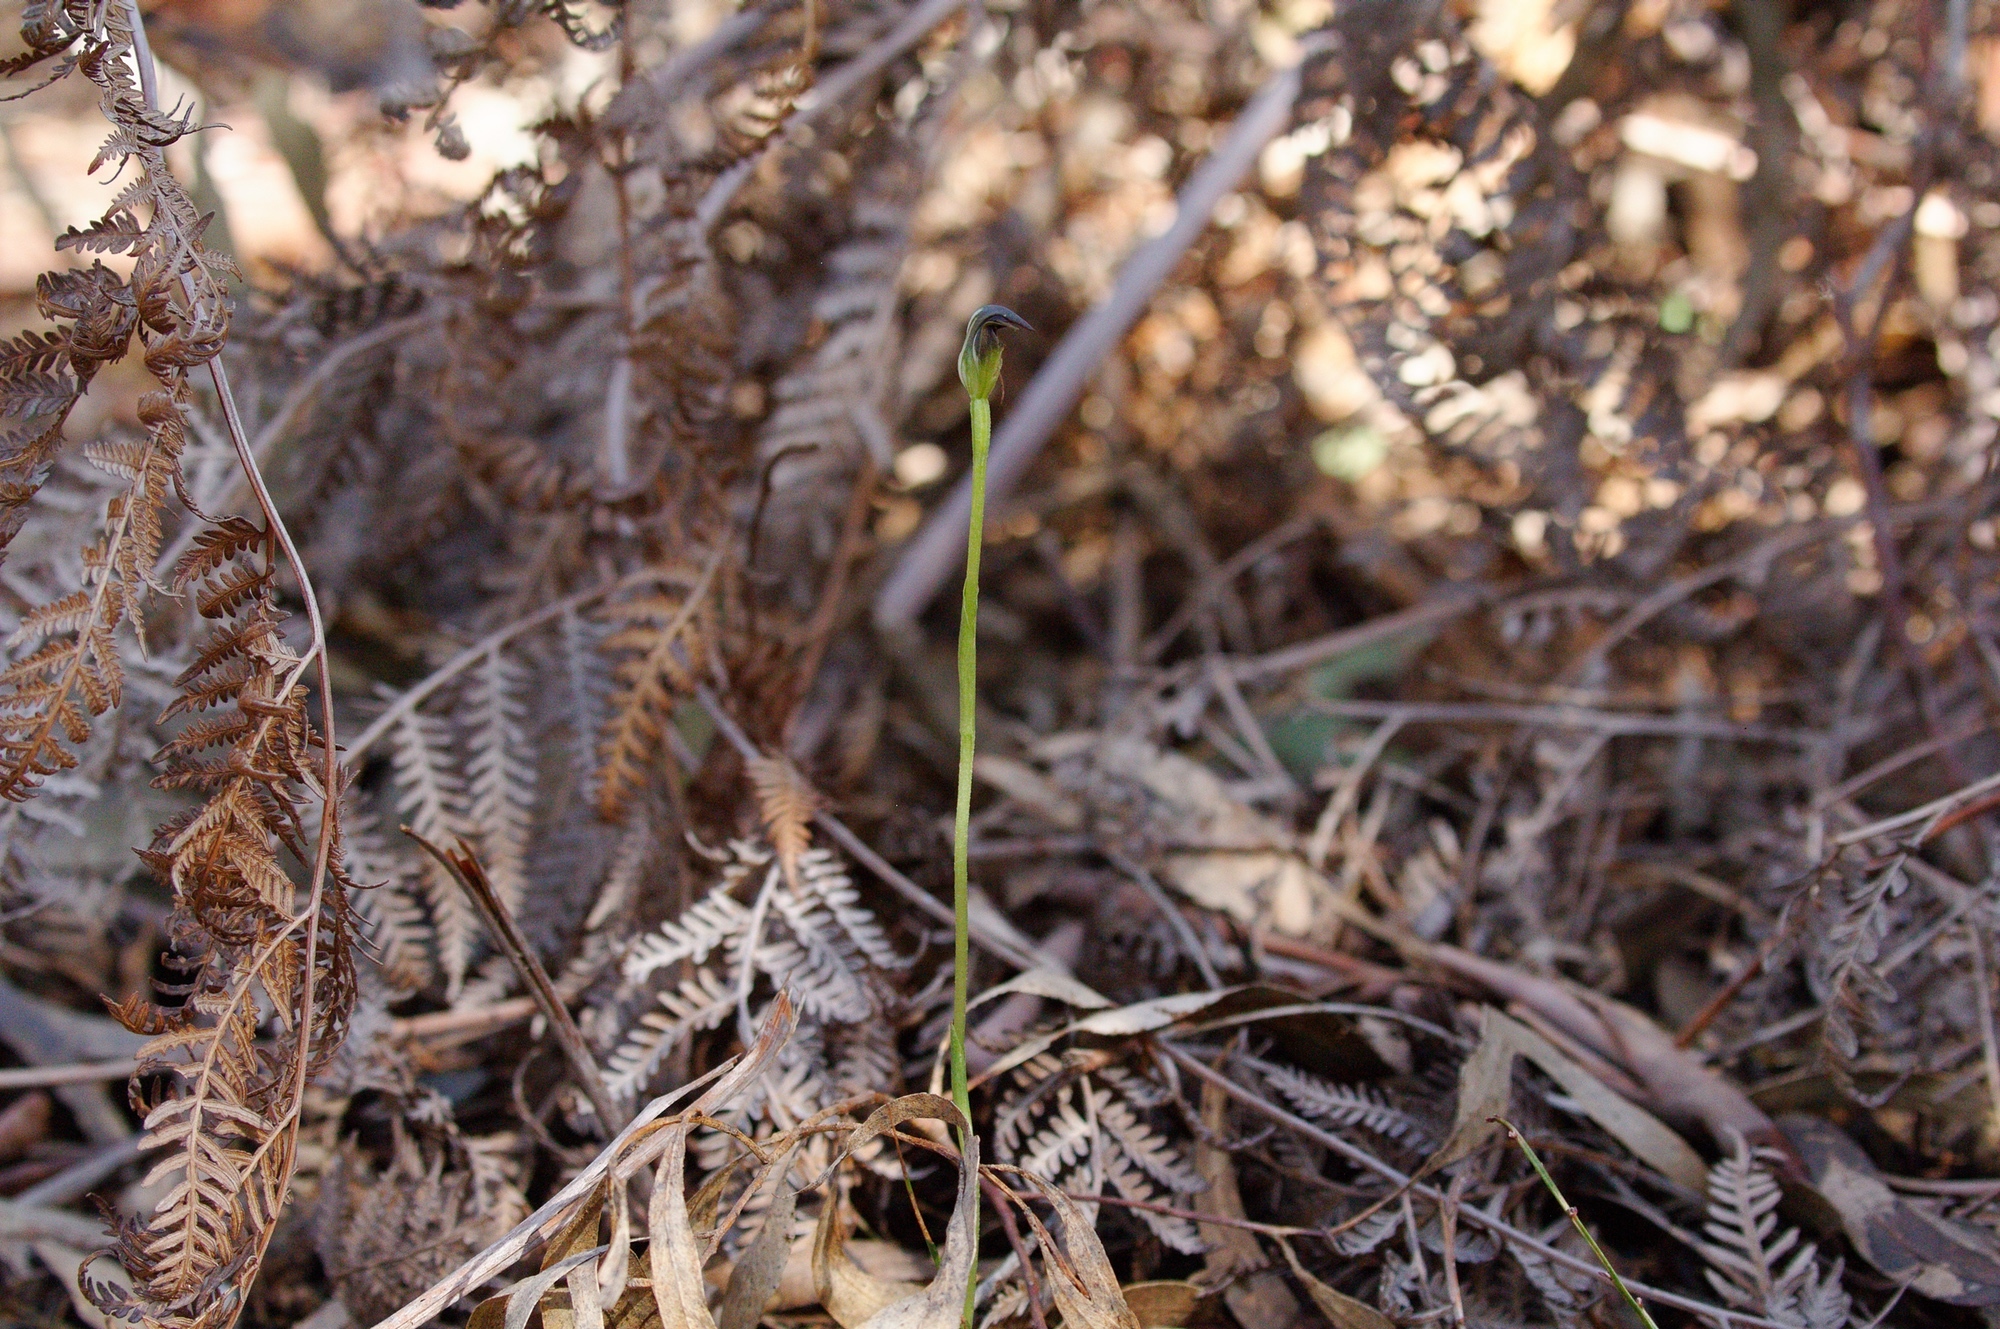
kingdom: Plantae
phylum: Tracheophyta
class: Liliopsida
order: Asparagales
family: Orchidaceae
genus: Pterostylis
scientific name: Pterostylis pedunculata
